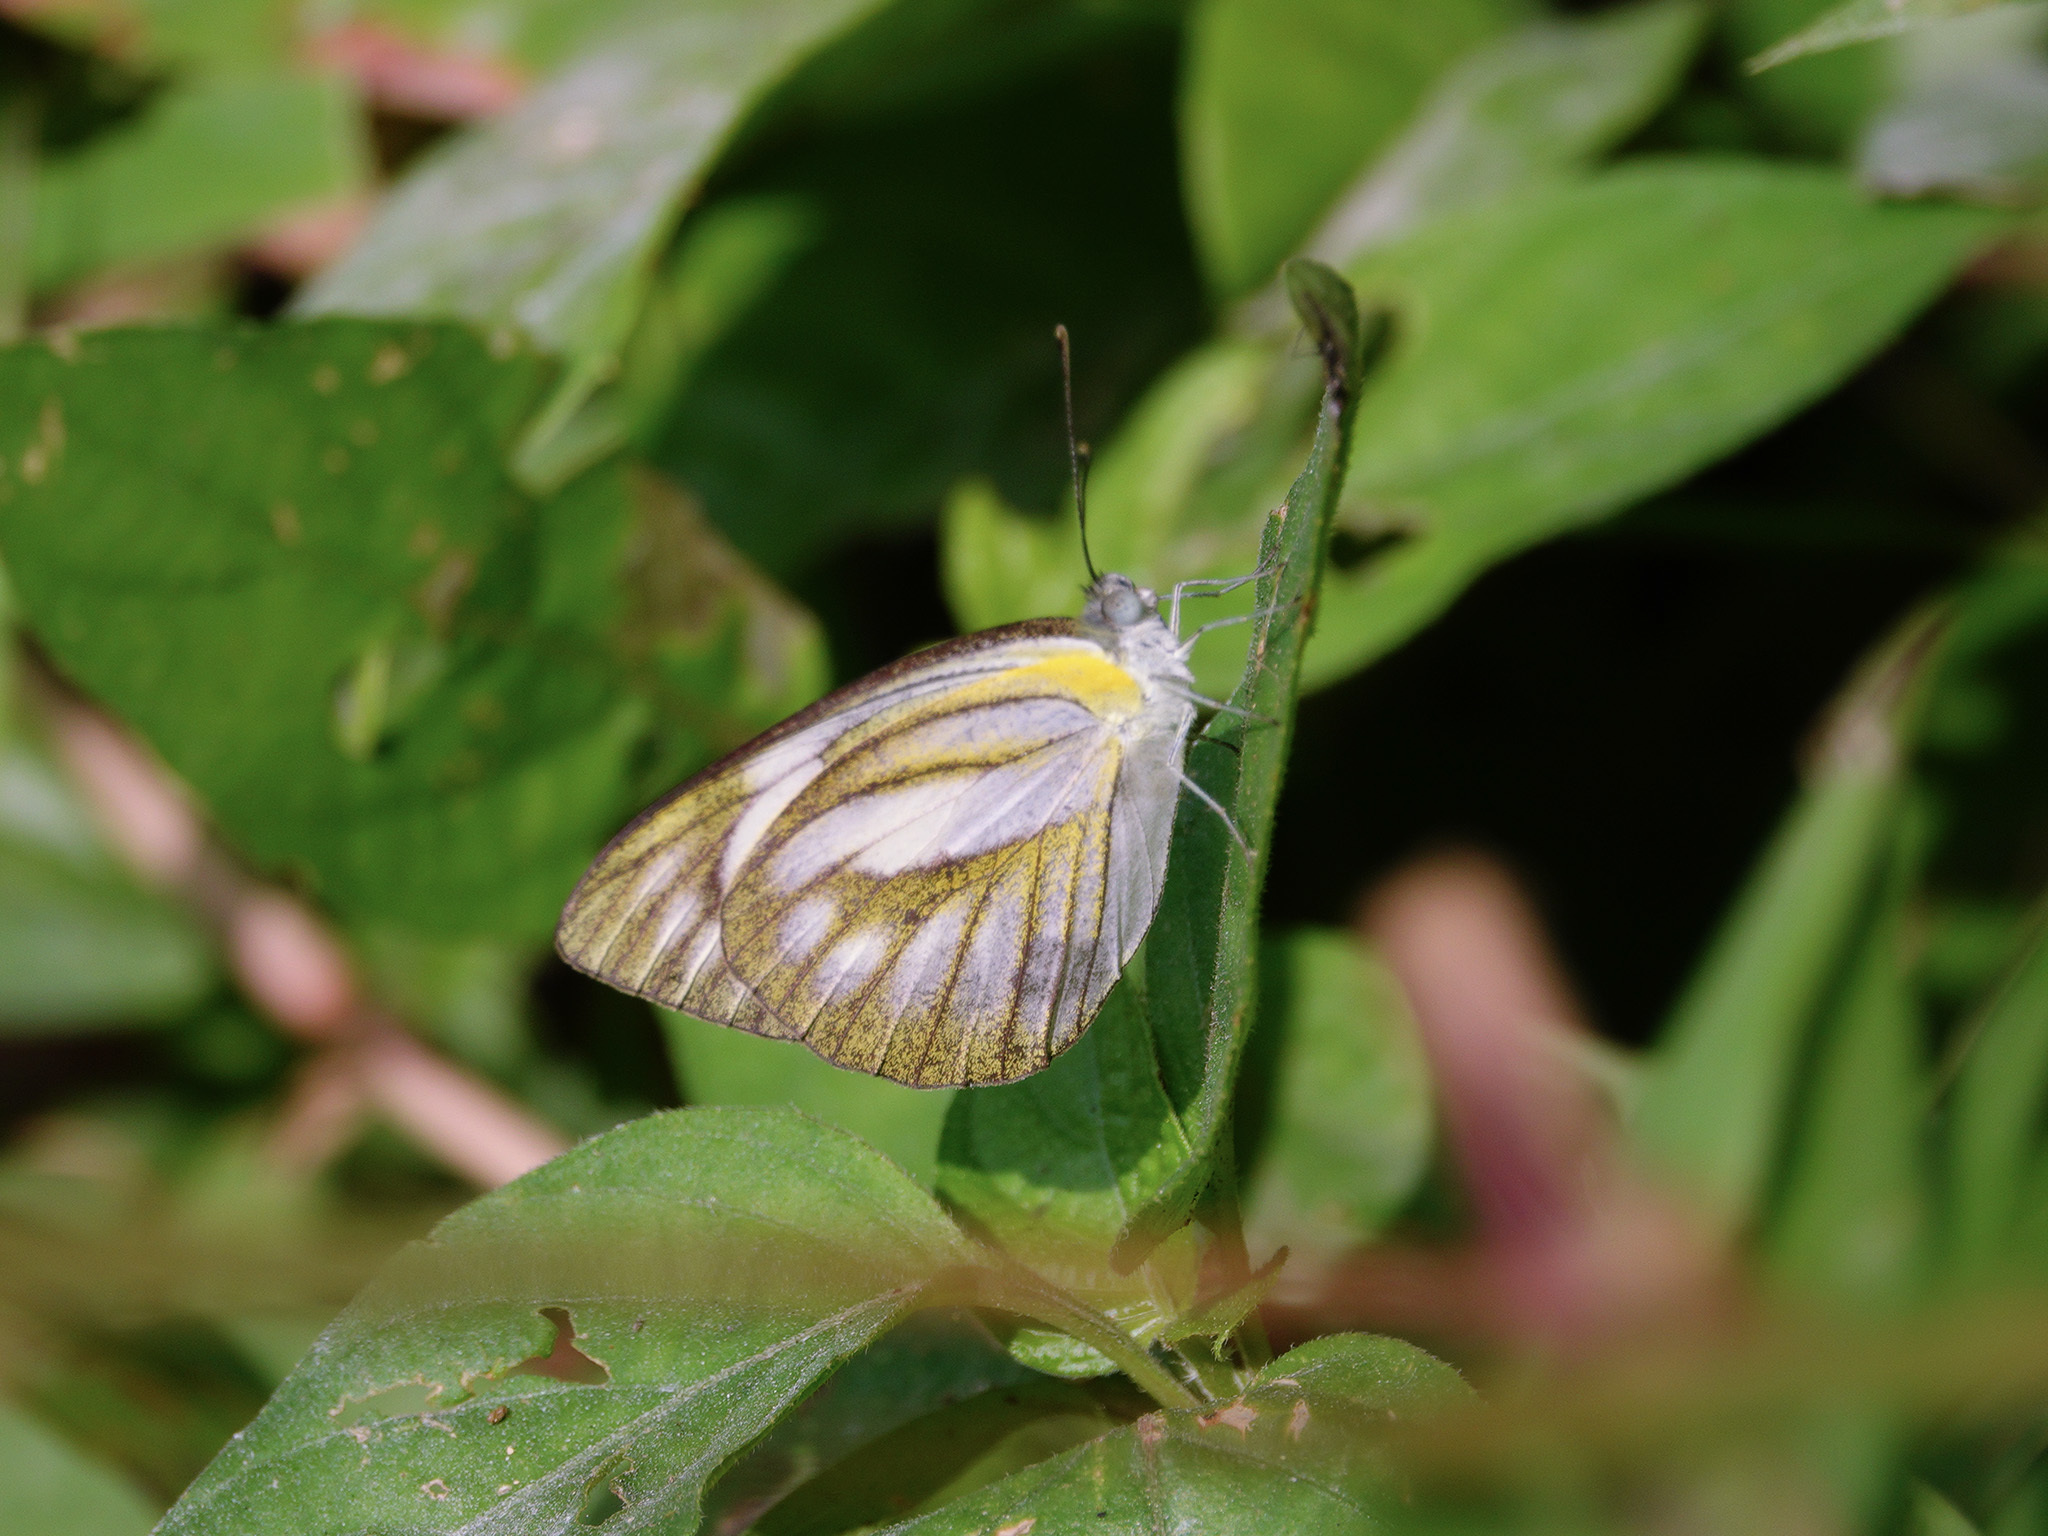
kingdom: Animalia
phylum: Arthropoda
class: Insecta
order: Lepidoptera
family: Pieridae
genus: Appias
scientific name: Appias libythea
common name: Striped albatross
